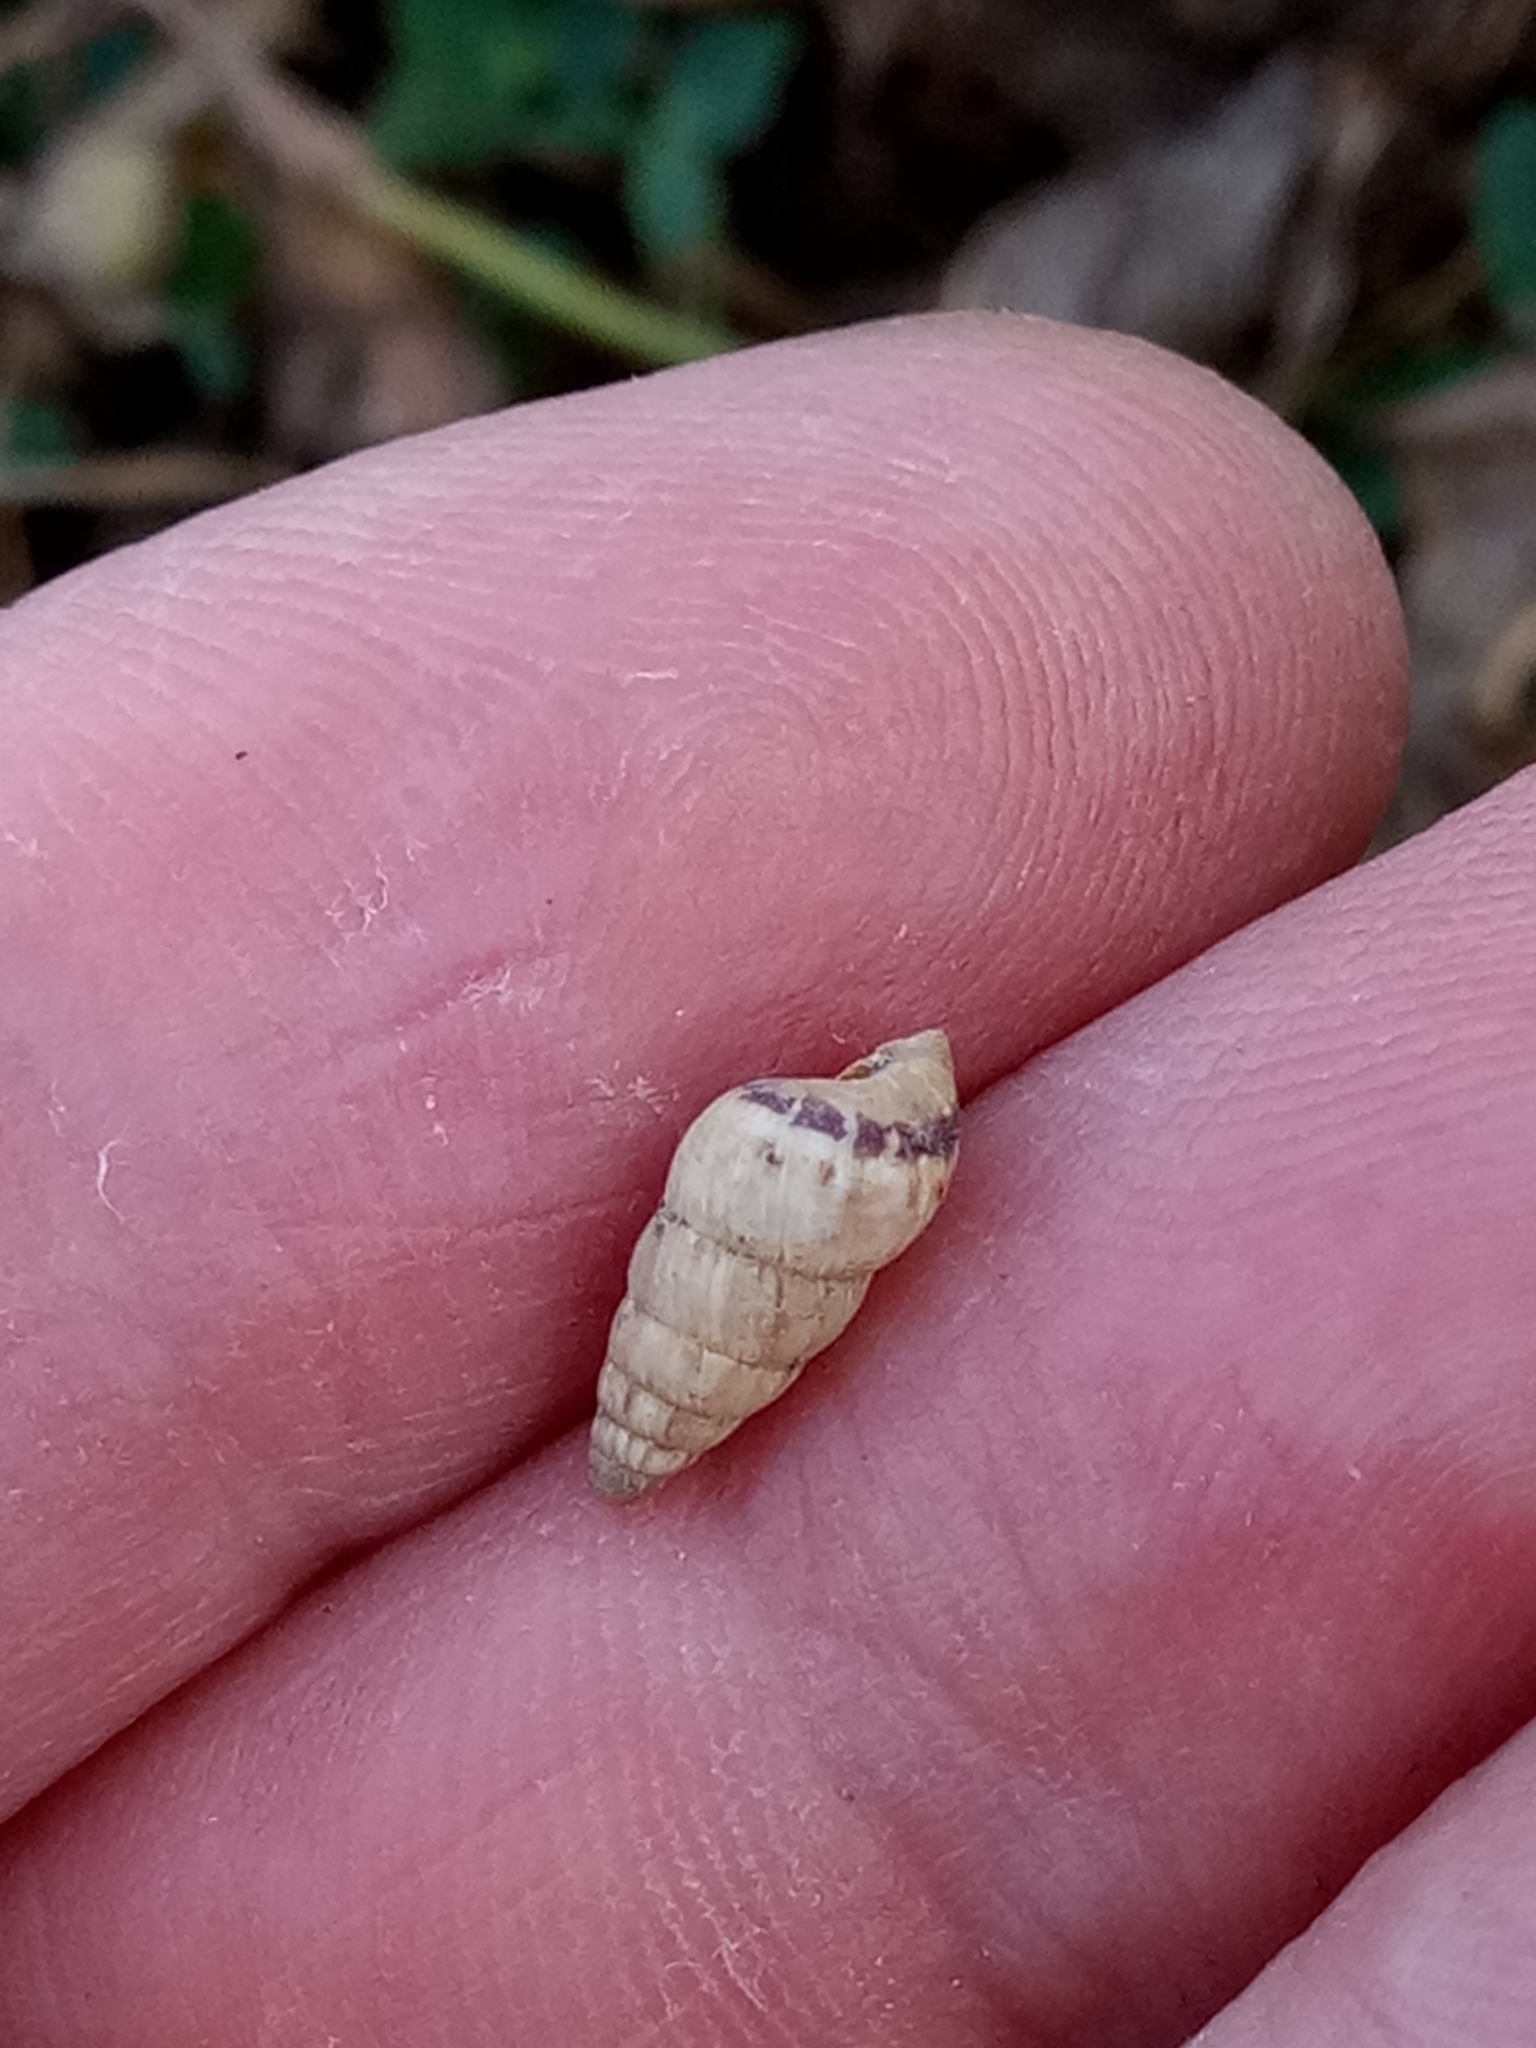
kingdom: Animalia
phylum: Mollusca
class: Gastropoda
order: Stylommatophora
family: Geomitridae
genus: Cochlicella
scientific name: Cochlicella acuta
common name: Pointed snail
